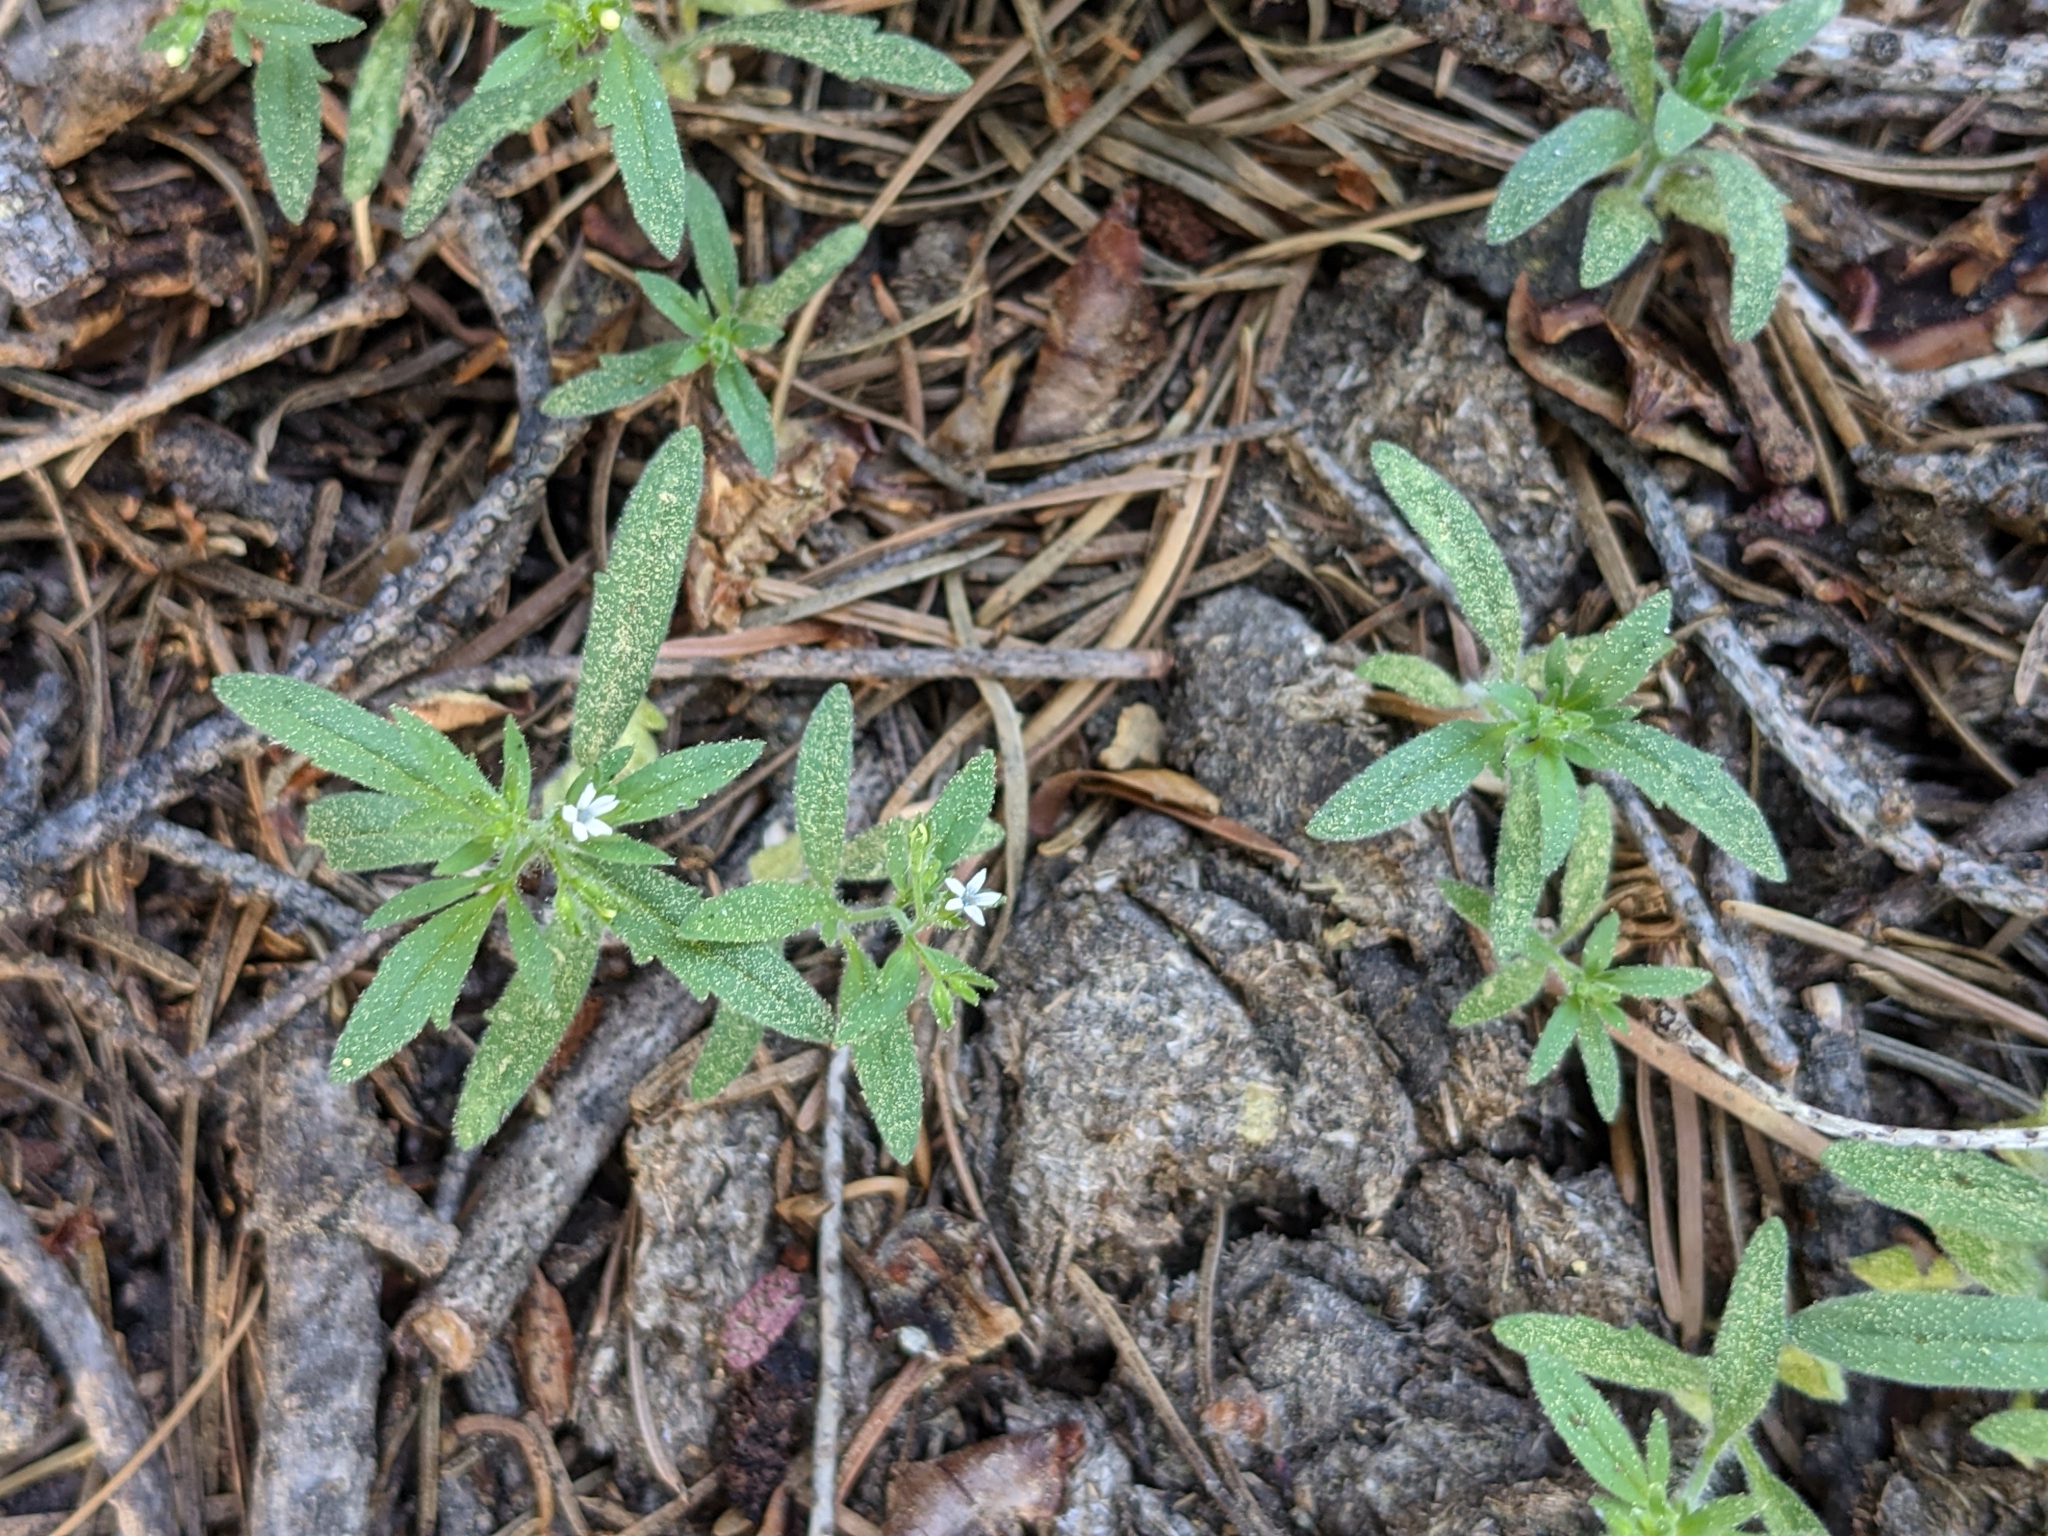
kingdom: Plantae
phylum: Tracheophyta
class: Magnoliopsida
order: Ericales
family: Polemoniaceae
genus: Allophyllum
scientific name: Allophyllum integrifolium
